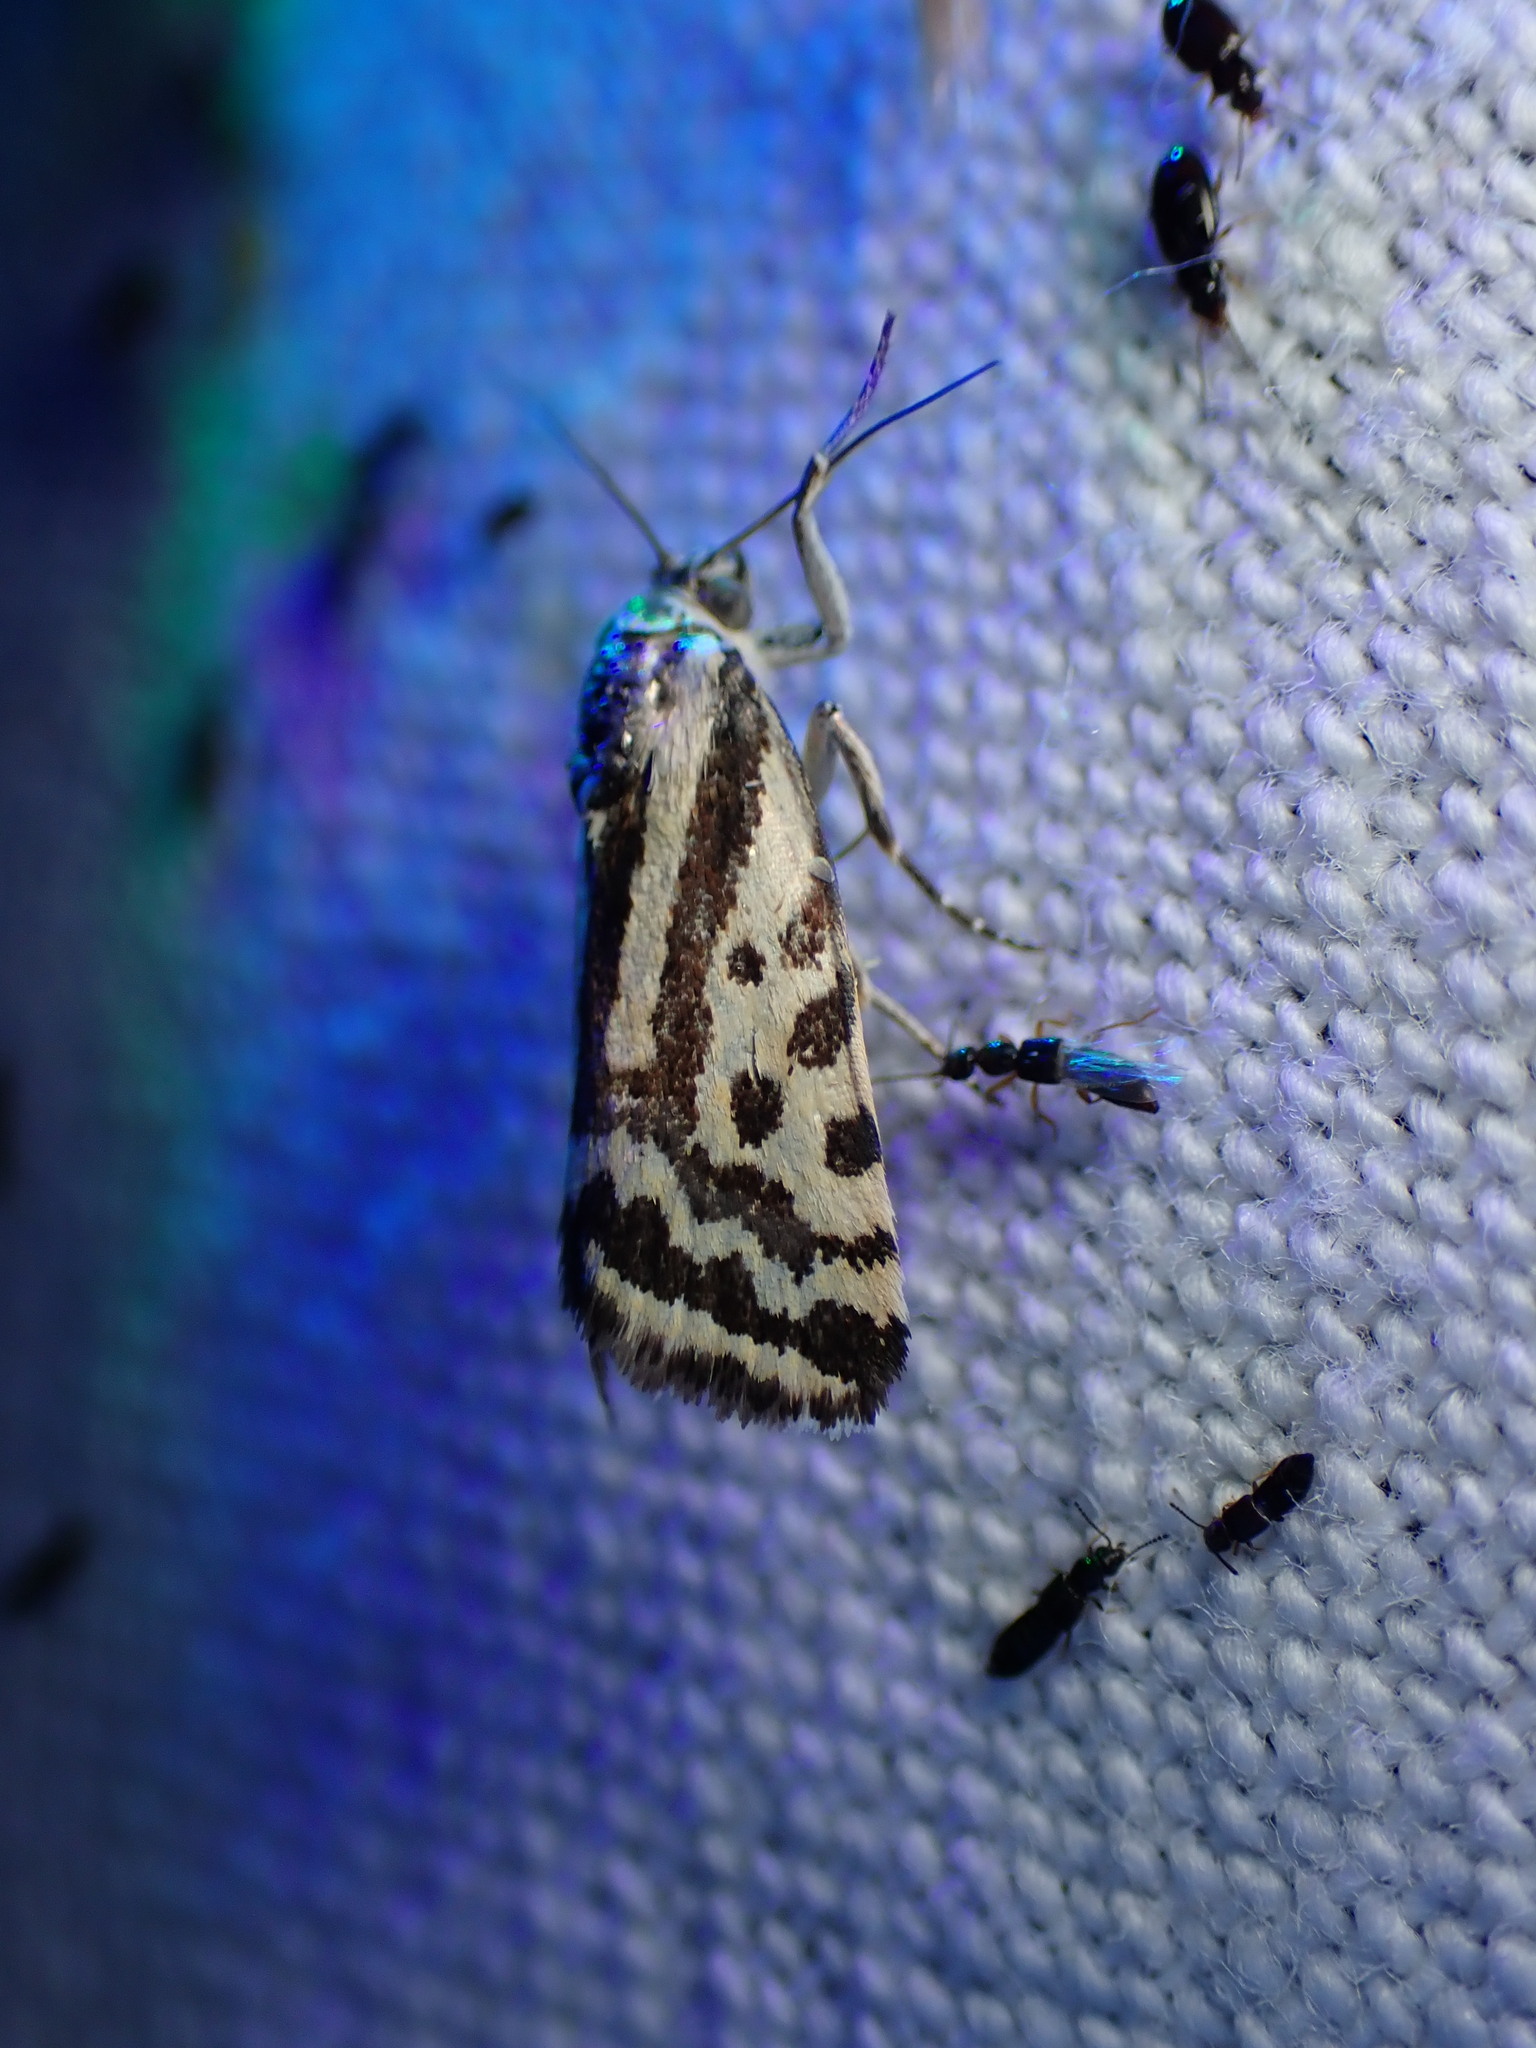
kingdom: Animalia
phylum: Arthropoda
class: Insecta
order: Lepidoptera
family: Noctuidae
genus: Acontia
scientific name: Acontia trabealis
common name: Spotted sulphur
